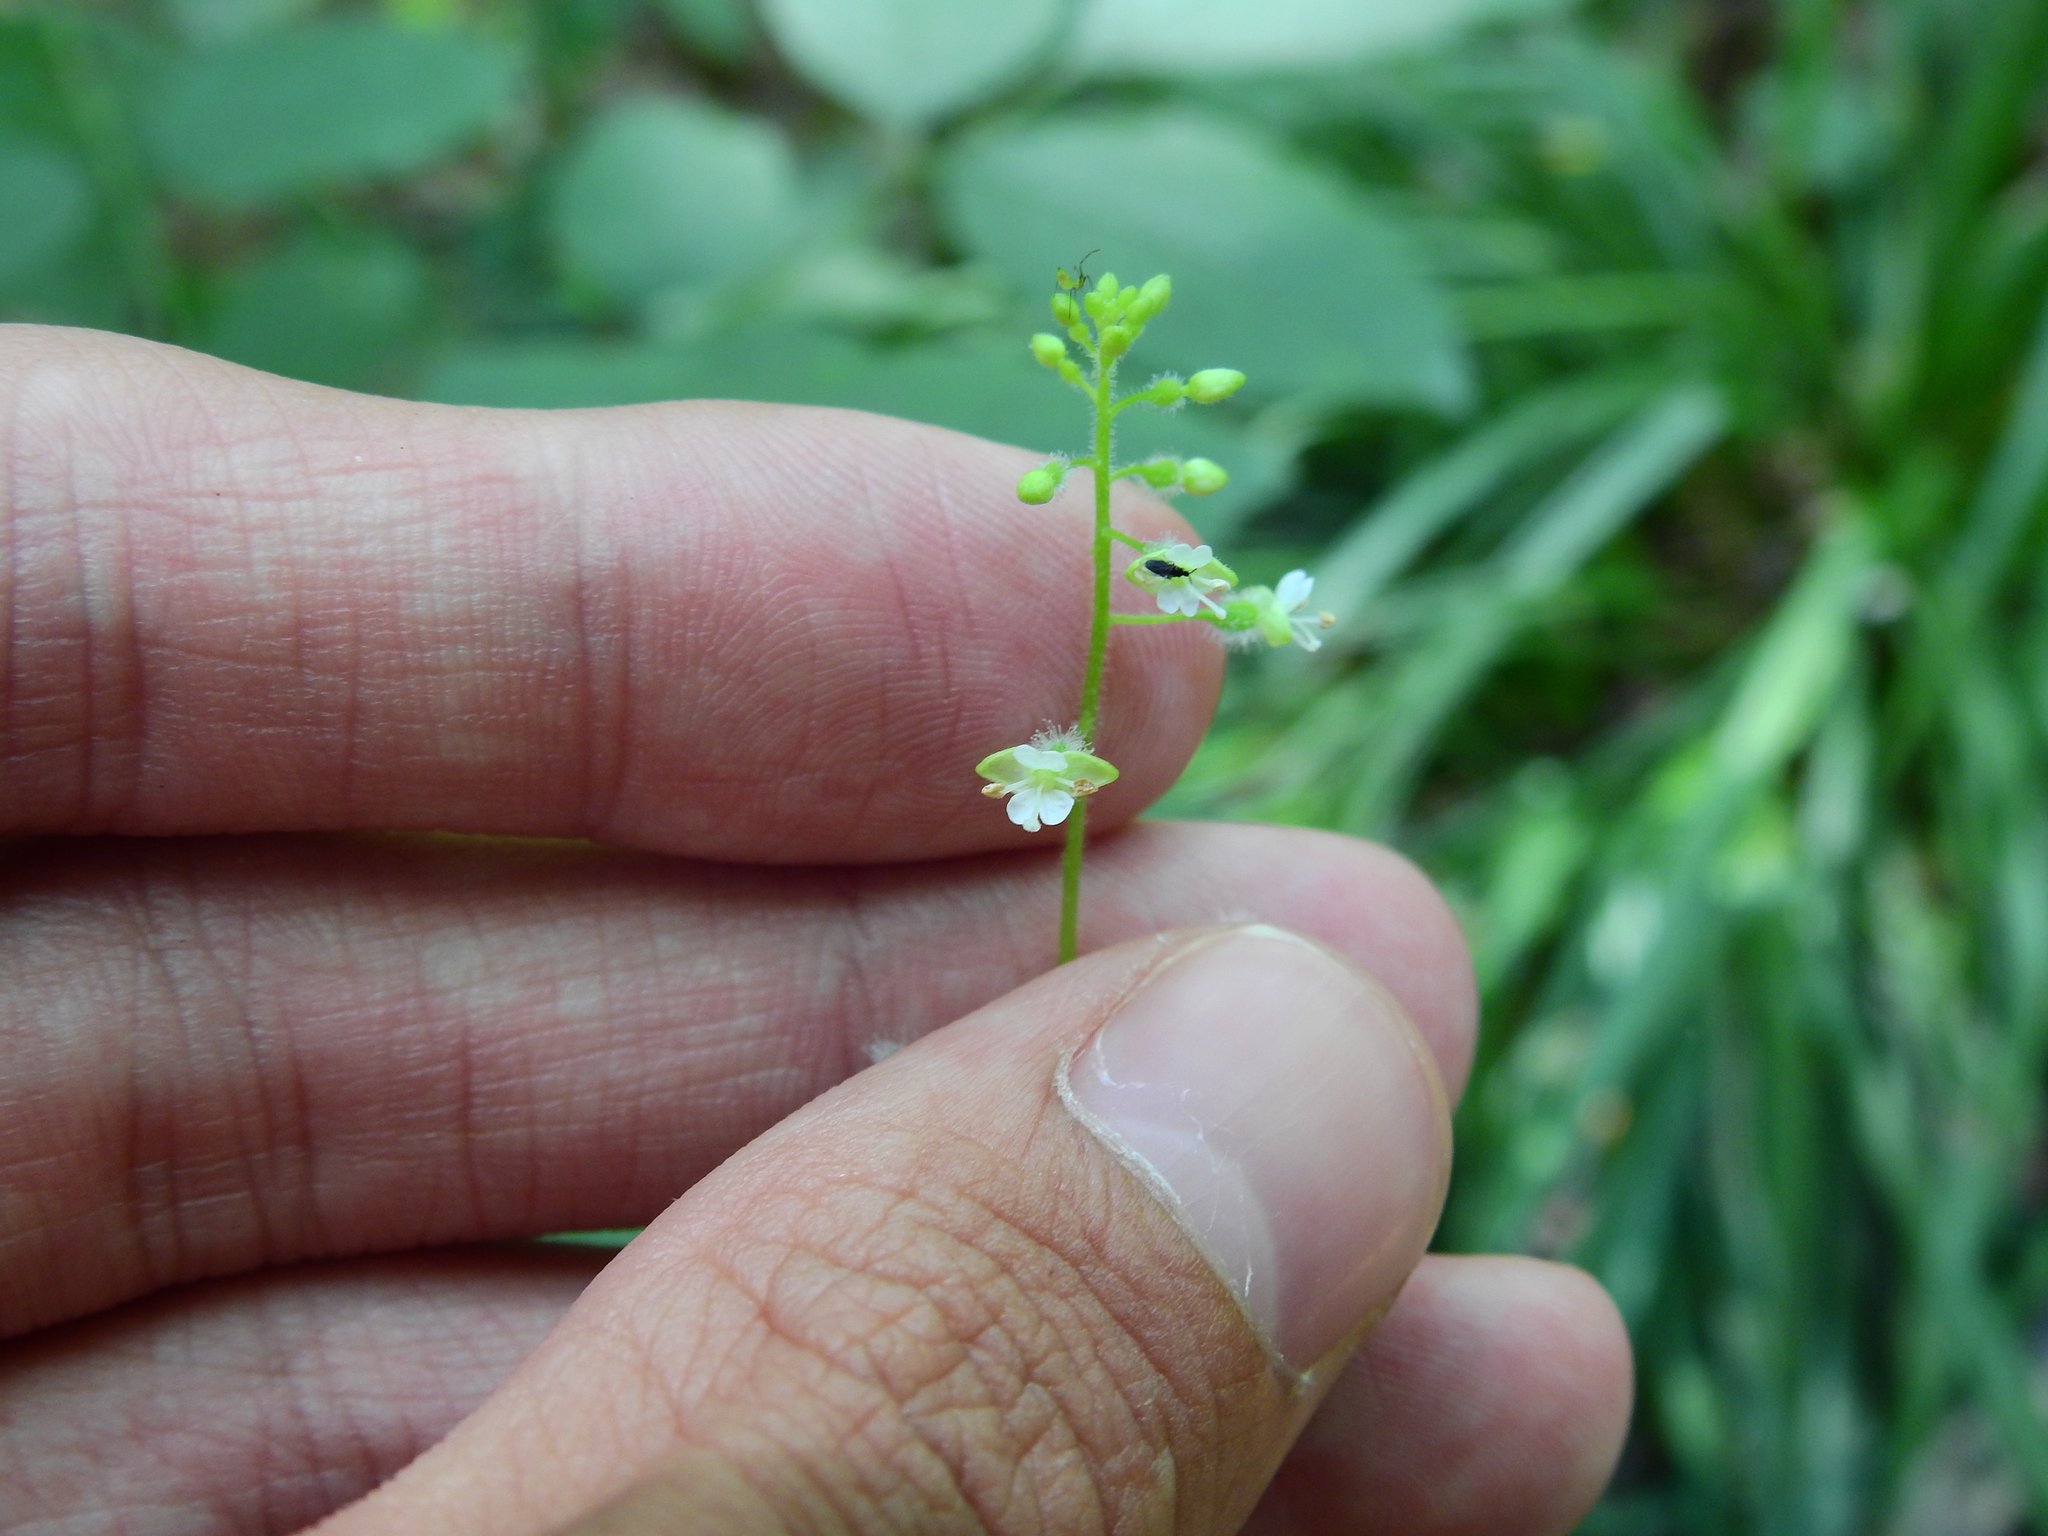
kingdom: Plantae
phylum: Tracheophyta
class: Magnoliopsida
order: Myrtales
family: Onagraceae
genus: Circaea
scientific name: Circaea canadensis
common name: Broad-leaved enchanter's nightshade
